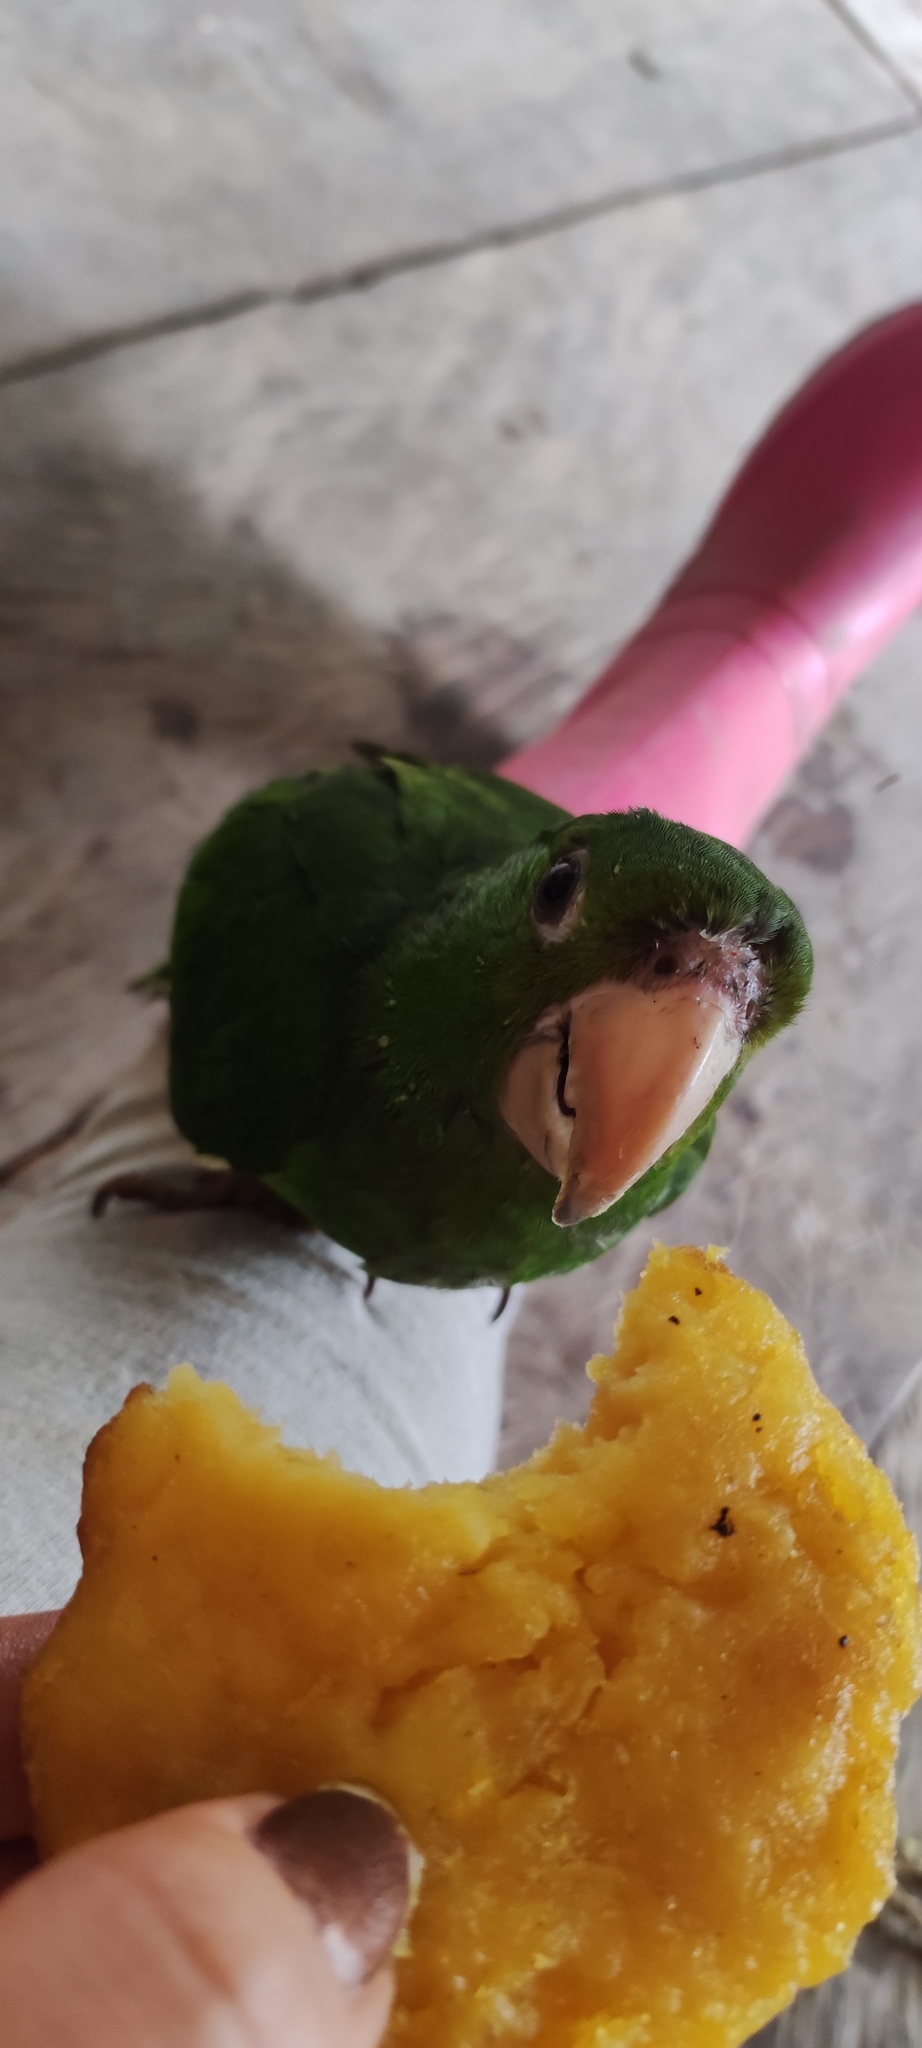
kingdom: Animalia
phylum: Chordata
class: Aves
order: Psittaciformes
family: Psittacidae
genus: Aratinga
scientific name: Aratinga leucophthalma
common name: White-eyed parakeet
